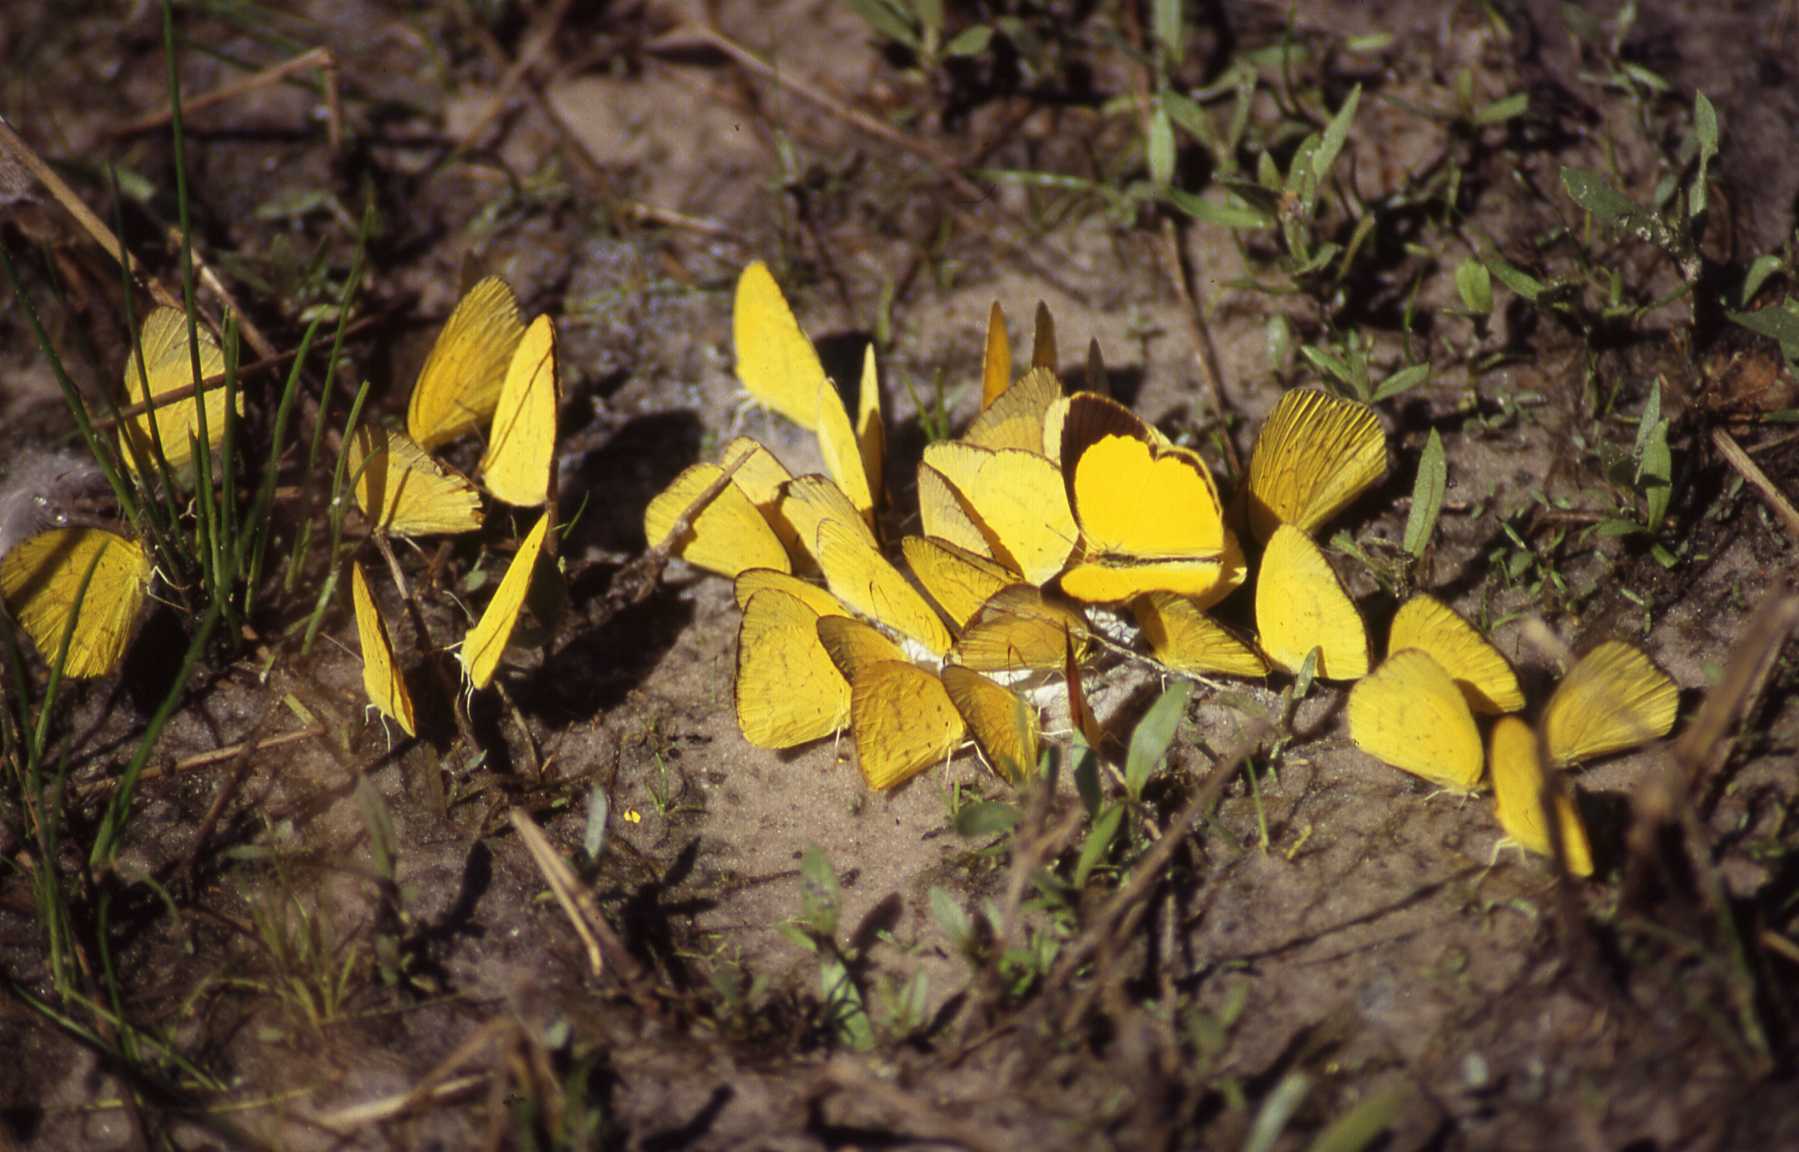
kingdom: Animalia
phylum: Arthropoda
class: Insecta
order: Lepidoptera
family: Pieridae
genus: Eurema
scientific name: Eurema brigitta
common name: Small grass yellow
